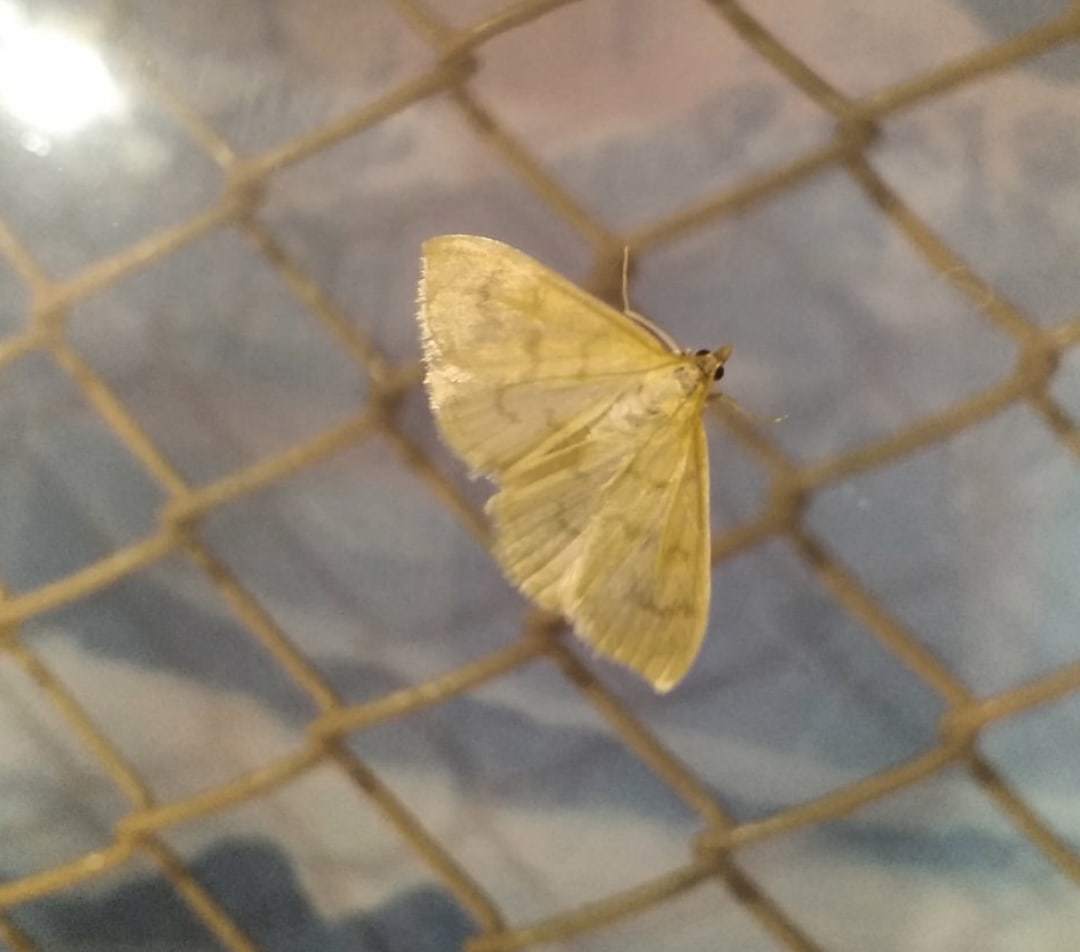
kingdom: Animalia
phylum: Arthropoda
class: Insecta
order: Lepidoptera
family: Crambidae
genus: Paratalanta
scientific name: Paratalanta hyalinalis
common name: Translucent pearl
